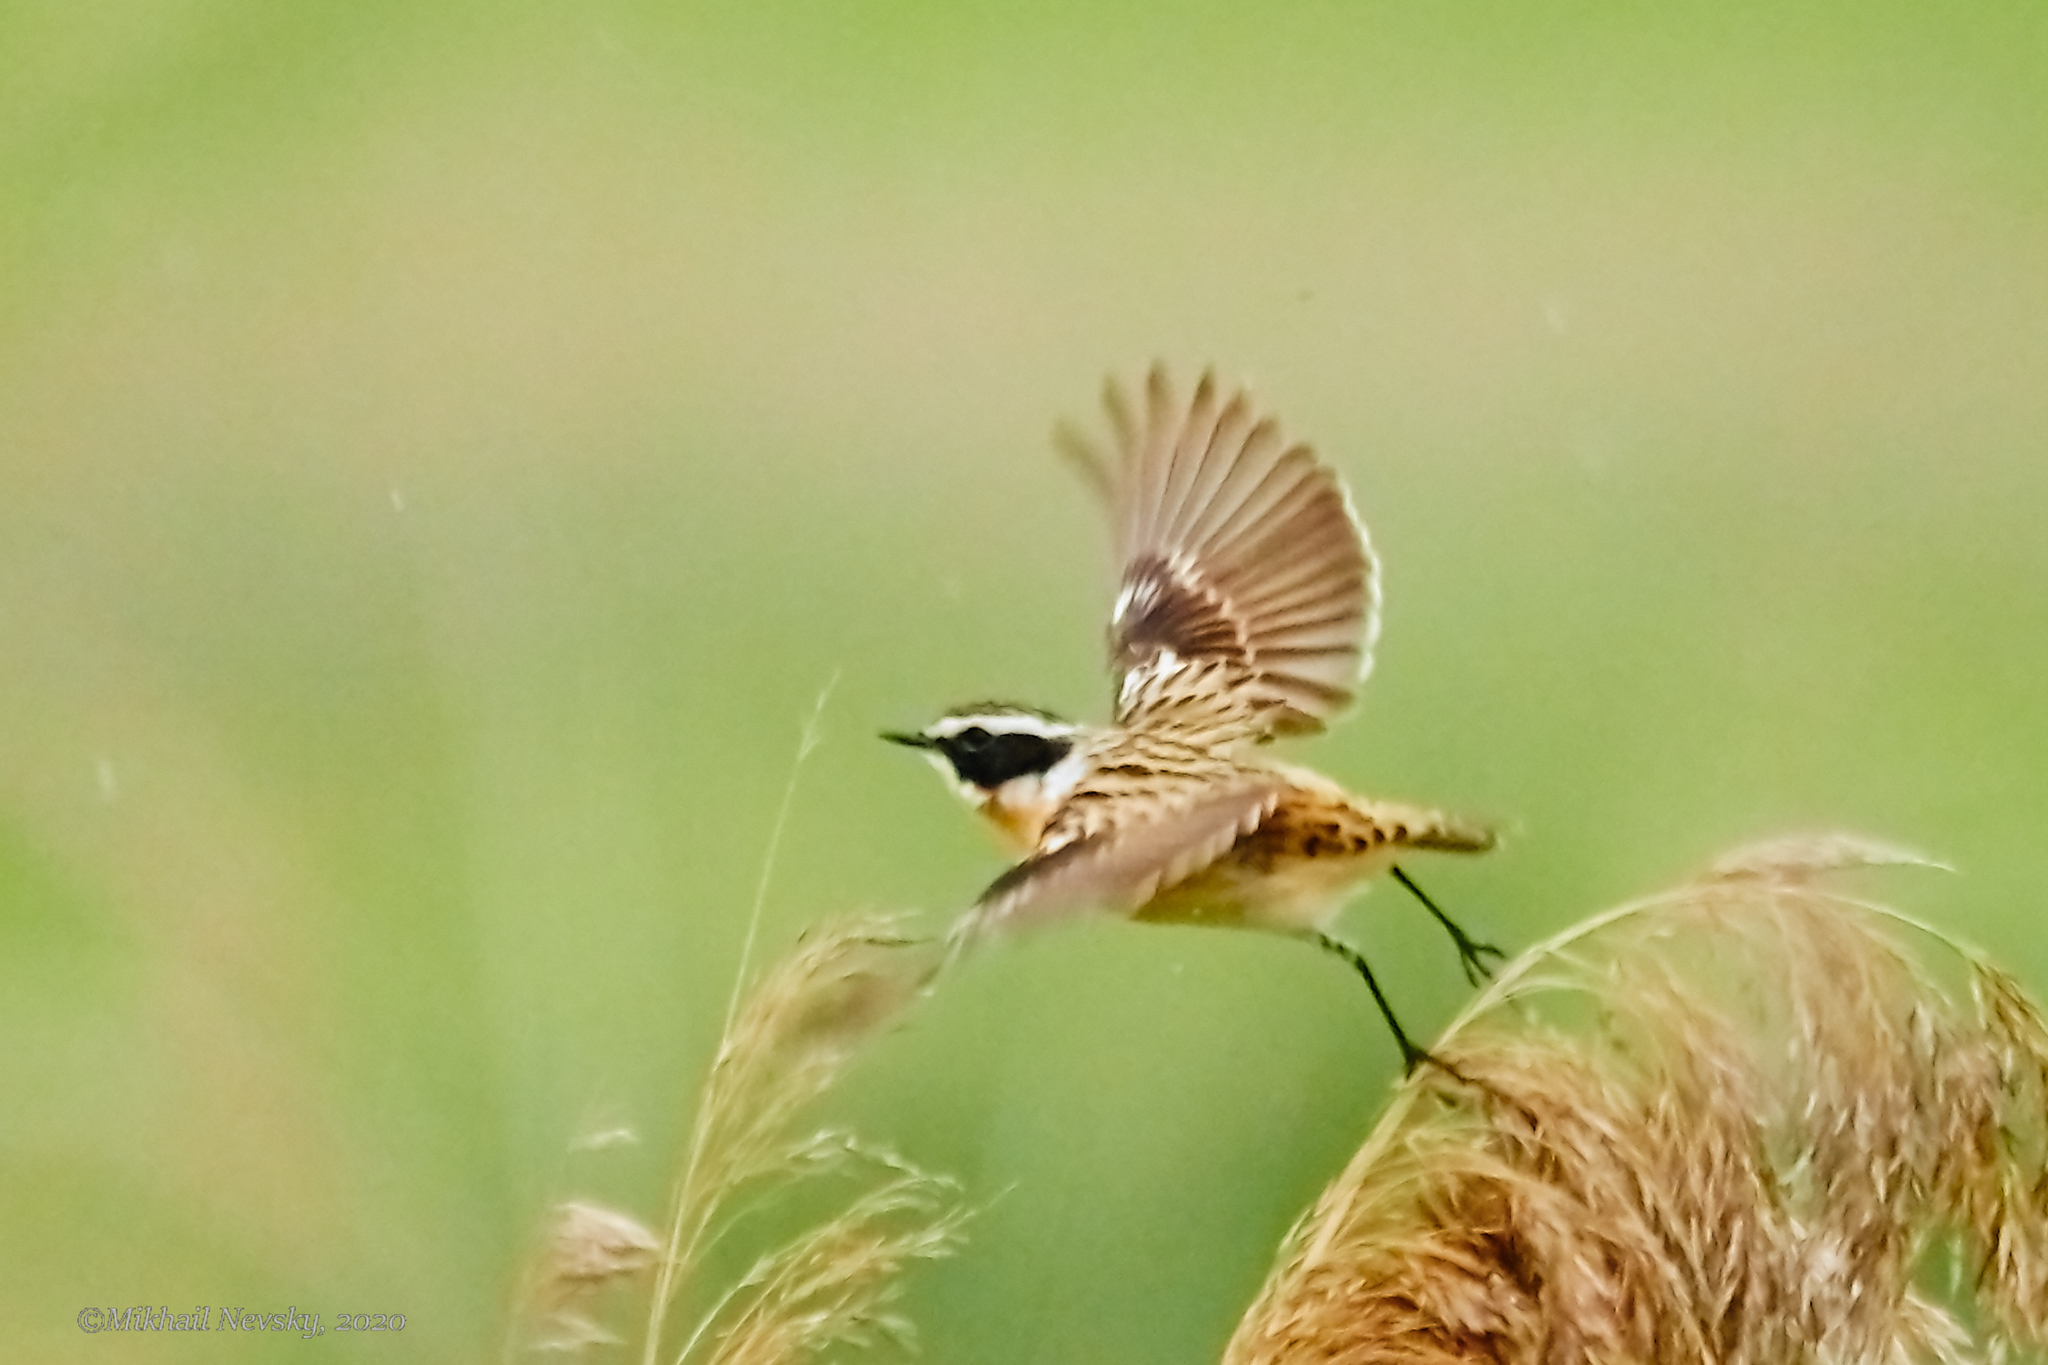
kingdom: Animalia
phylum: Chordata
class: Aves
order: Passeriformes
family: Muscicapidae
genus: Saxicola
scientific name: Saxicola rubetra
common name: Whinchat
